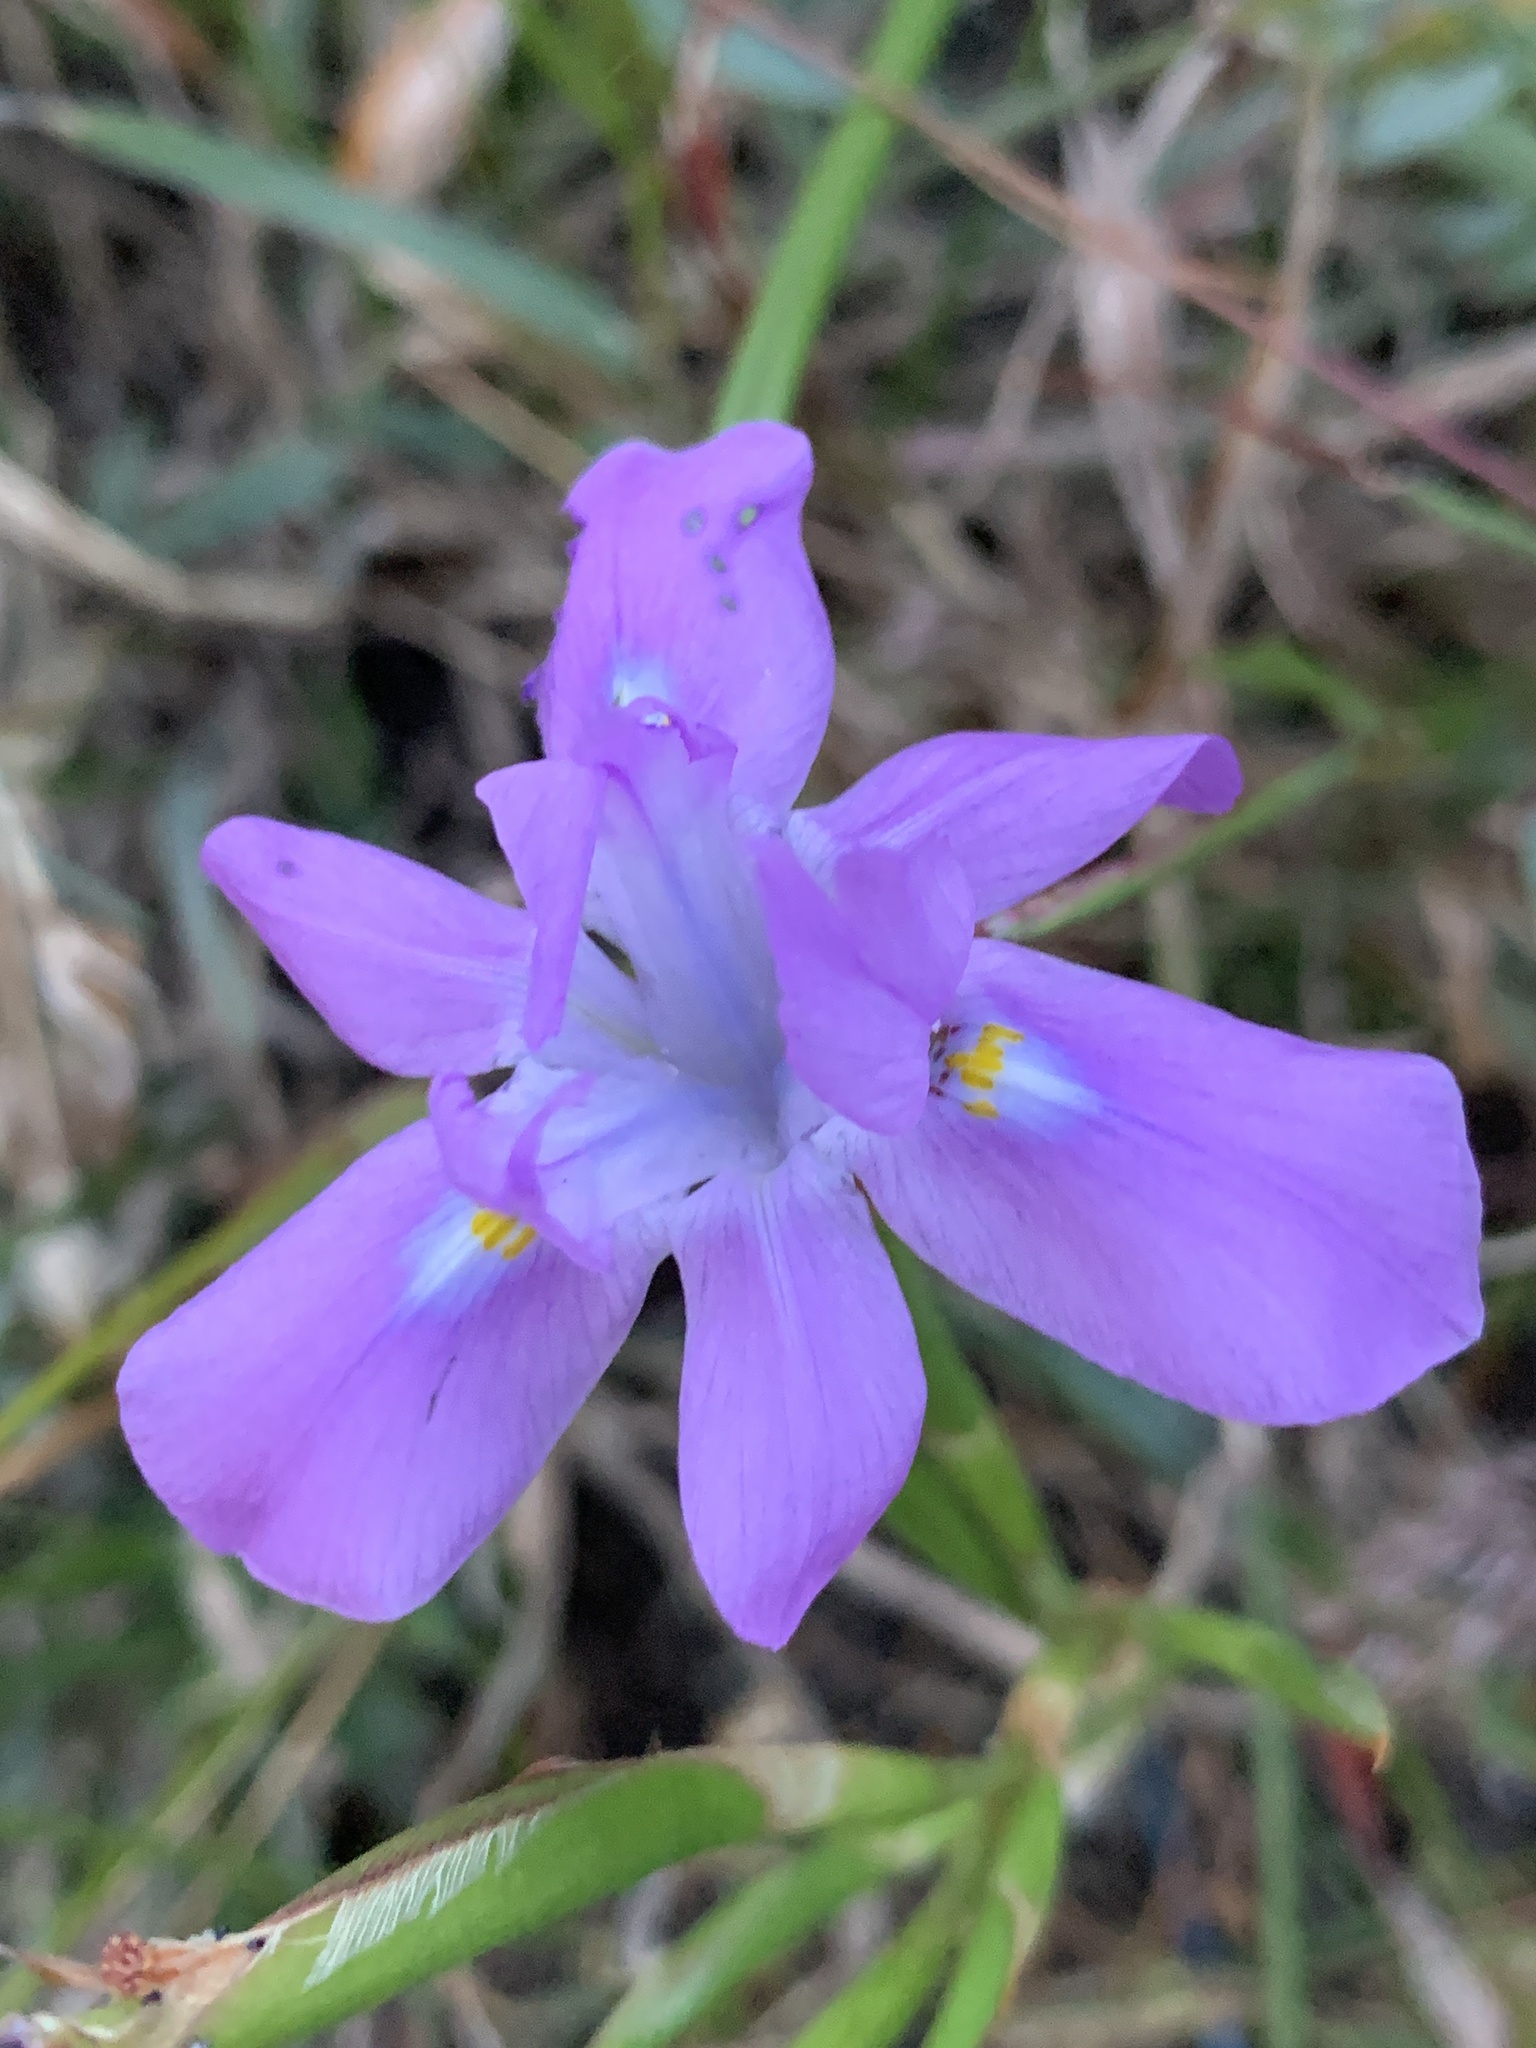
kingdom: Plantae
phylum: Tracheophyta
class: Liliopsida
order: Asparagales
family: Iridaceae
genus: Moraea
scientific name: Moraea fugax
